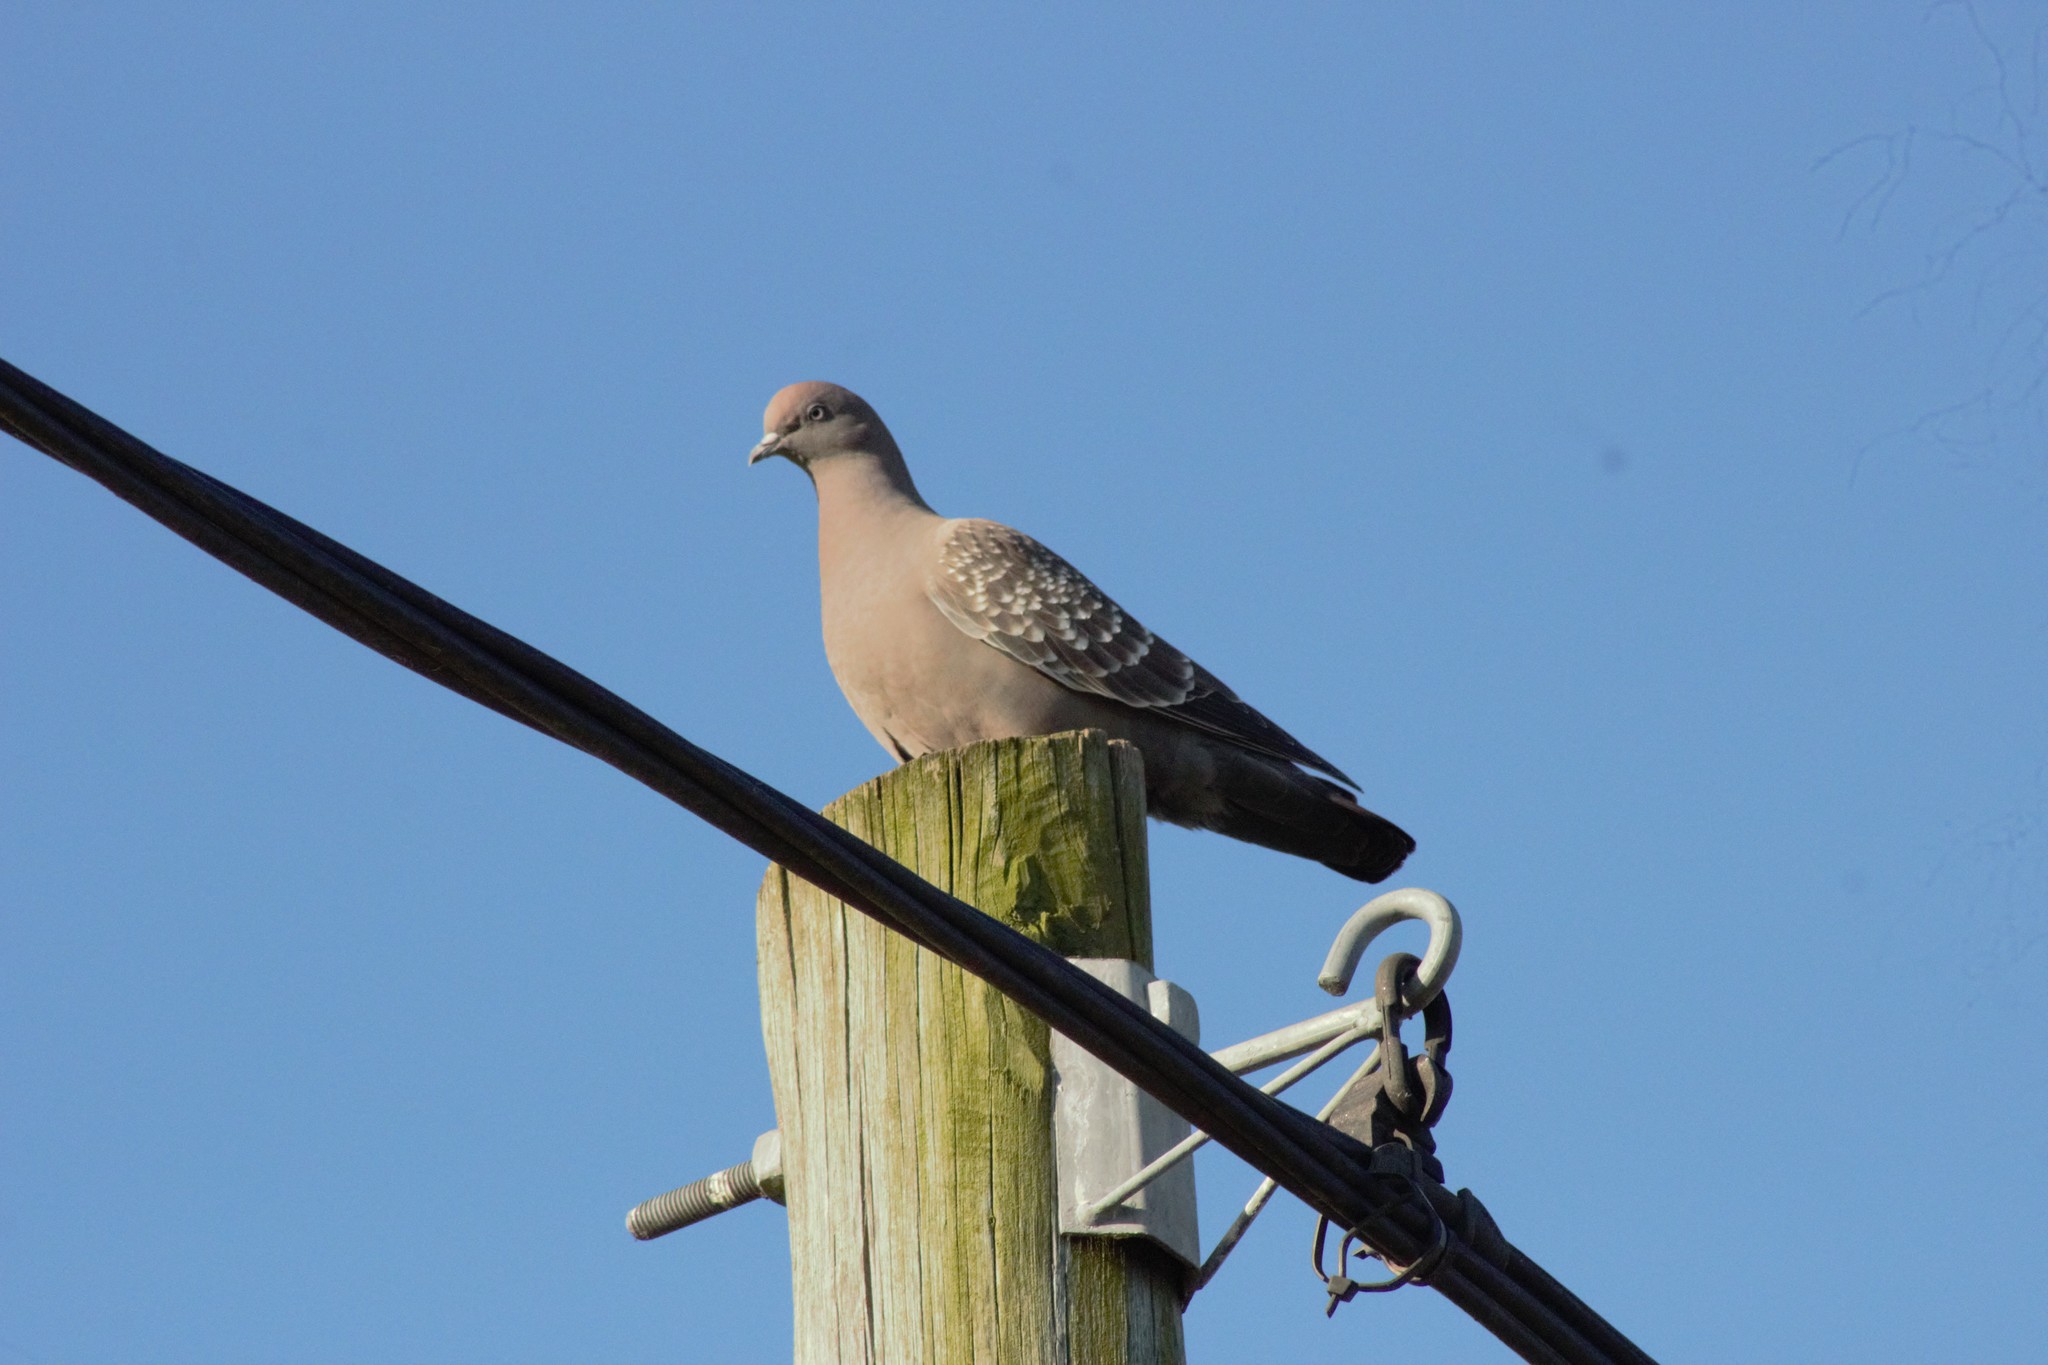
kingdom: Animalia
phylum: Chordata
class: Aves
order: Columbiformes
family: Columbidae
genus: Patagioenas
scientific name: Patagioenas maculosa
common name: Spot-winged pigeon
